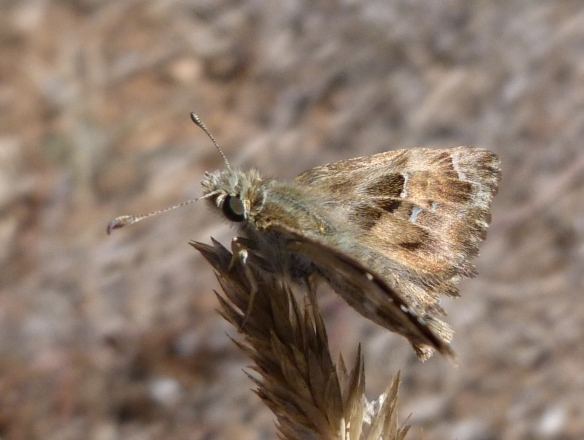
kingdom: Animalia
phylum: Arthropoda
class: Insecta
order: Lepidoptera
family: Hesperiidae
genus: Carcharodus
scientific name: Carcharodus alceae
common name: Mallow skipper
